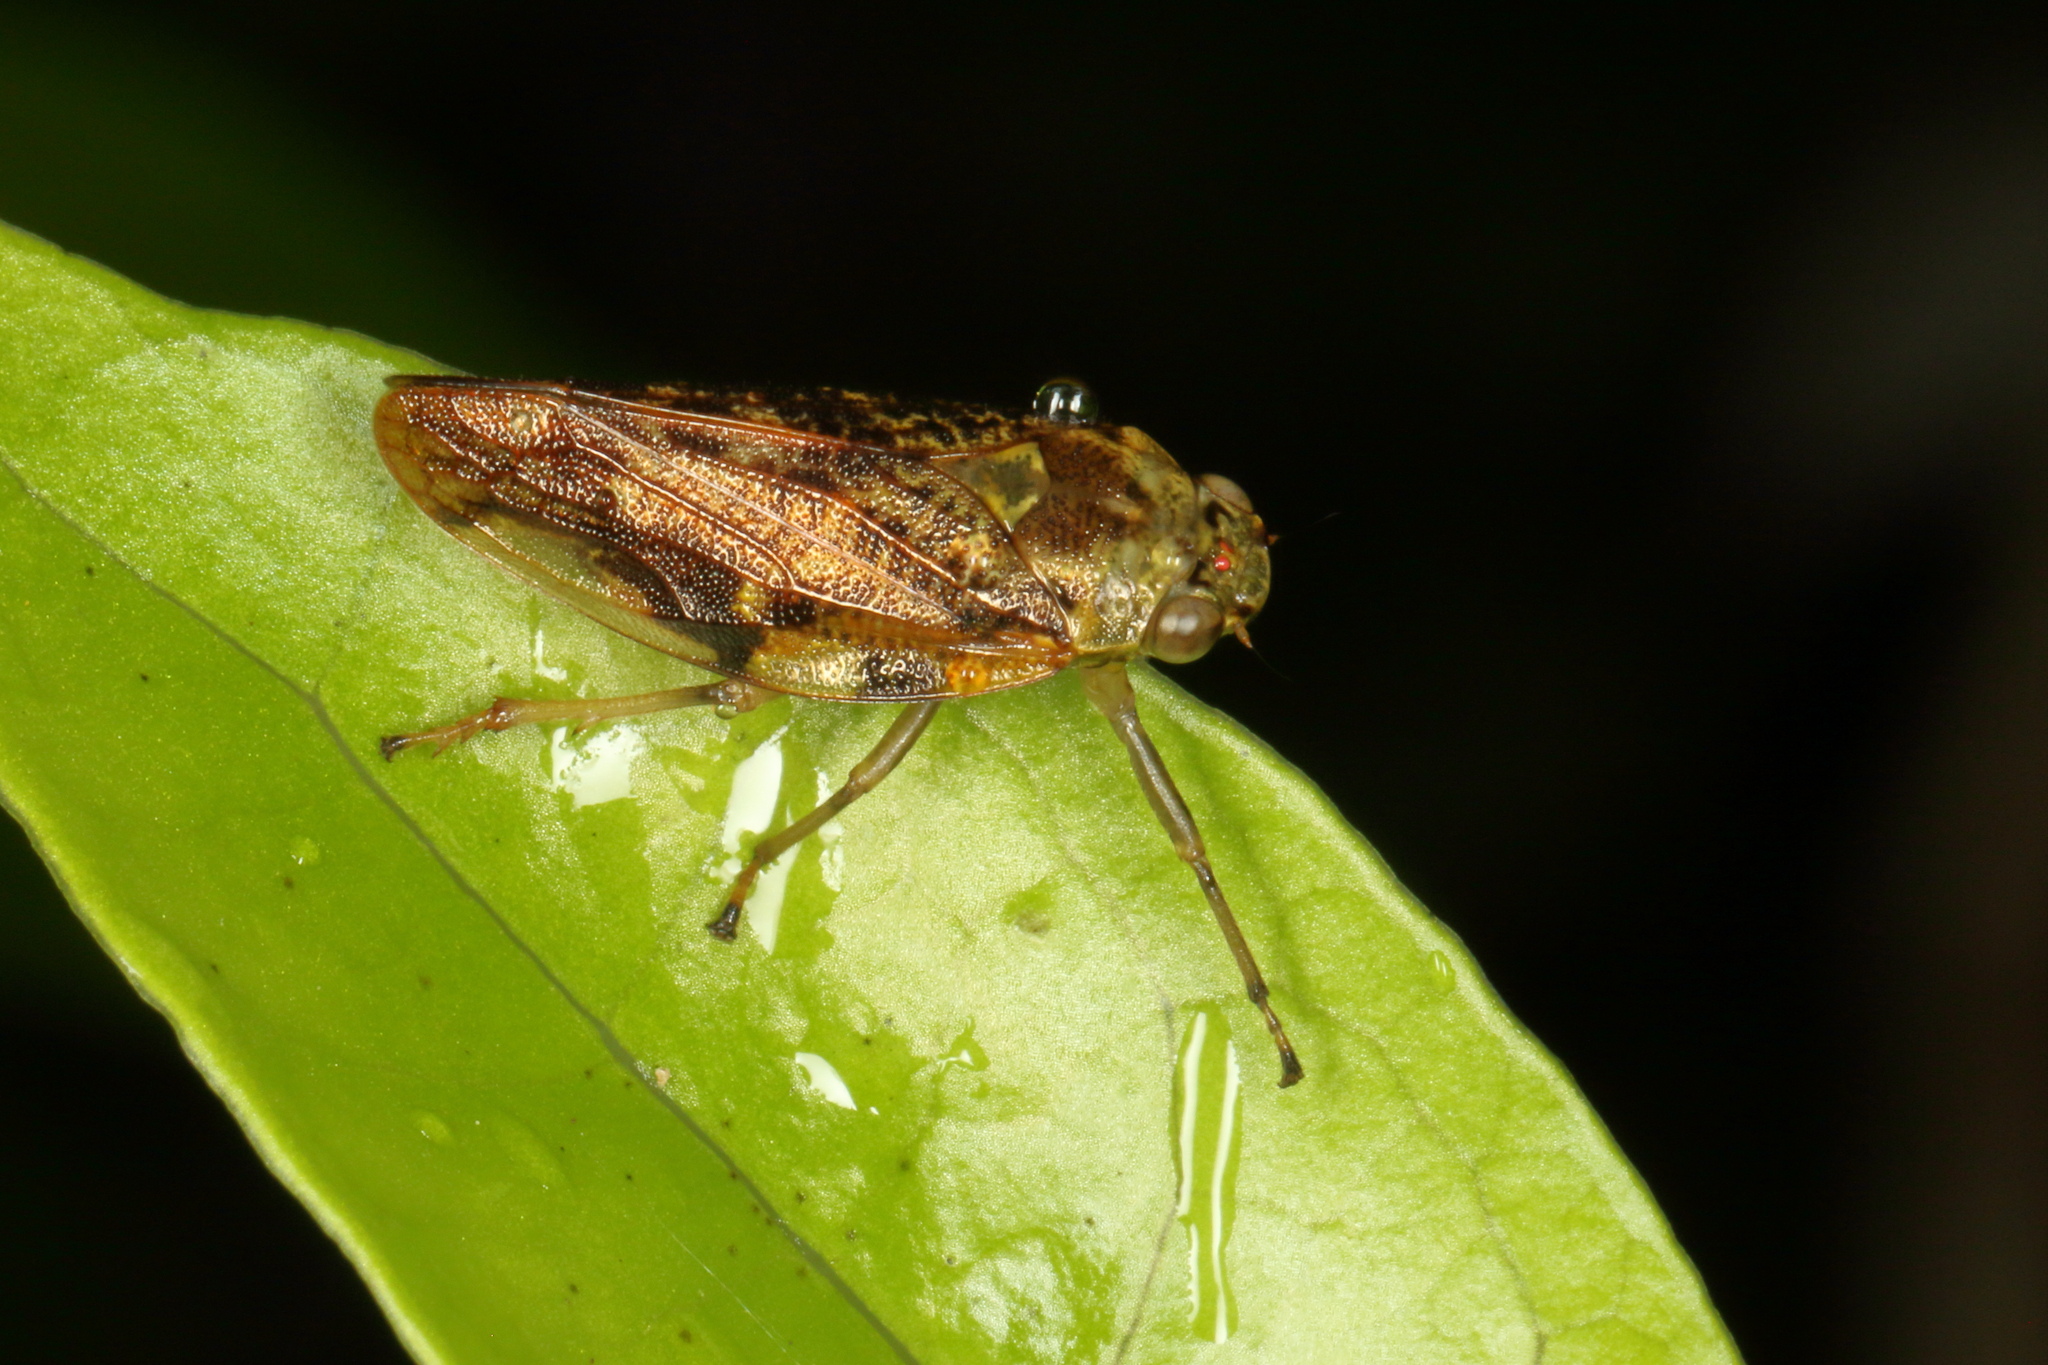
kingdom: Animalia
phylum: Arthropoda
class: Insecta
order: Hemiptera
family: Aphrophoridae
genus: Pseudaphronella
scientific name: Pseudaphronella jactator
